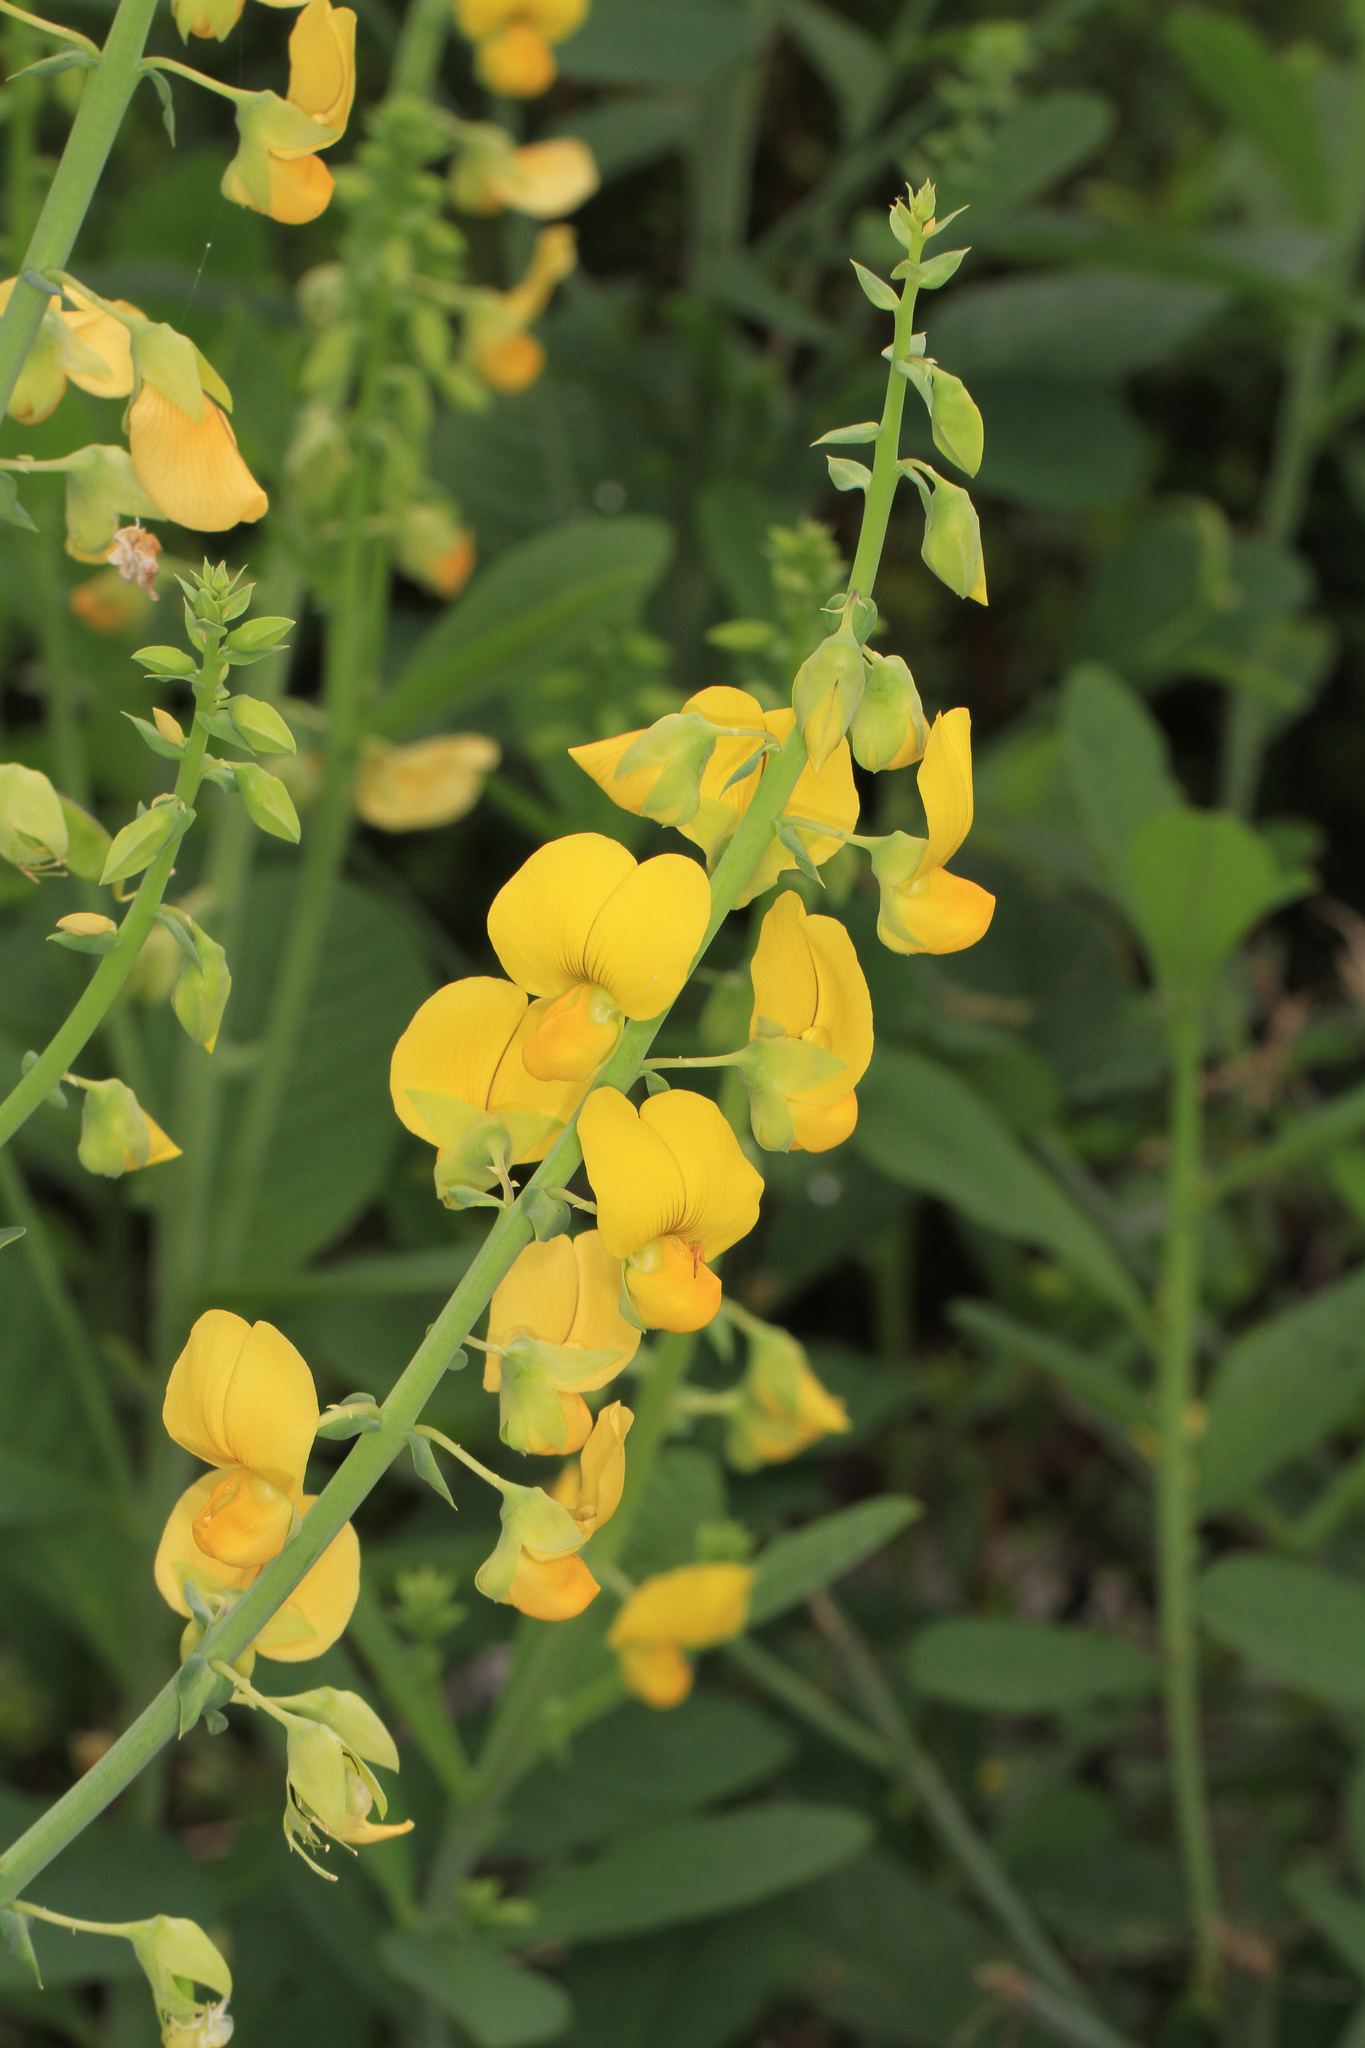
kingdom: Plantae
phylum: Tracheophyta
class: Magnoliopsida
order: Fabales
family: Fabaceae
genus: Crotalaria
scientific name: Crotalaria spectabilis
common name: Showy rattlebox
